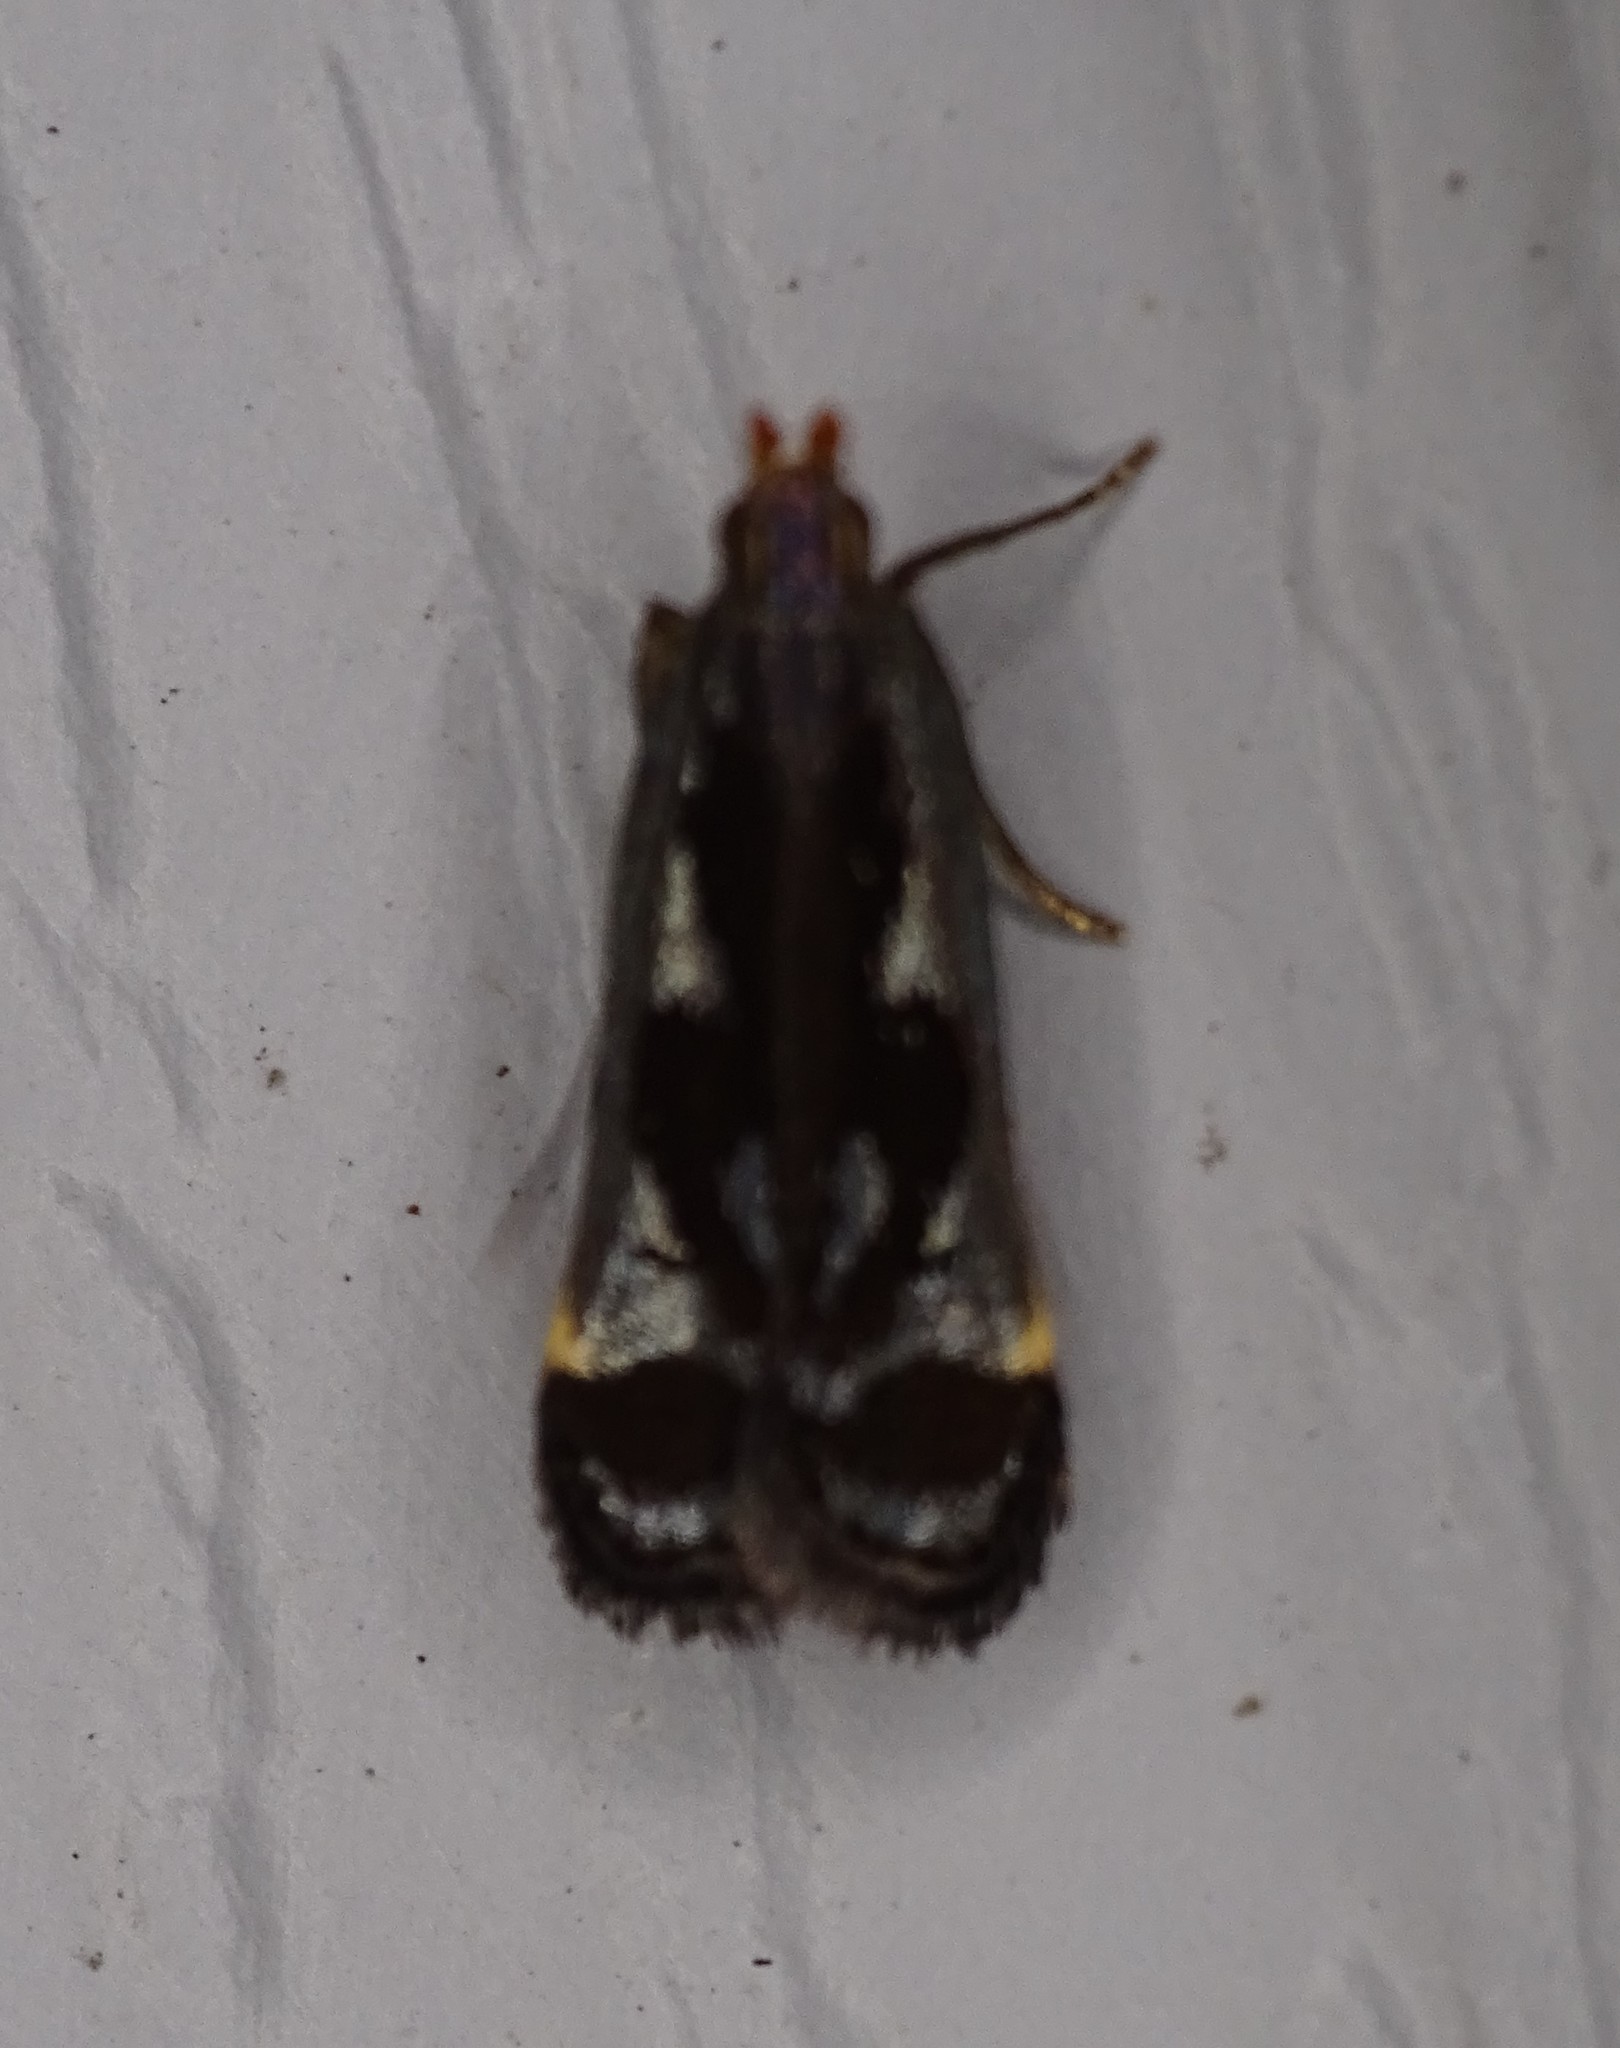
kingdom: Animalia
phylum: Arthropoda
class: Insecta
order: Lepidoptera
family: Gelechiidae
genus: Dichomeris
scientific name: Dichomeris ochripalpella
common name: Shining dichomeris moth
